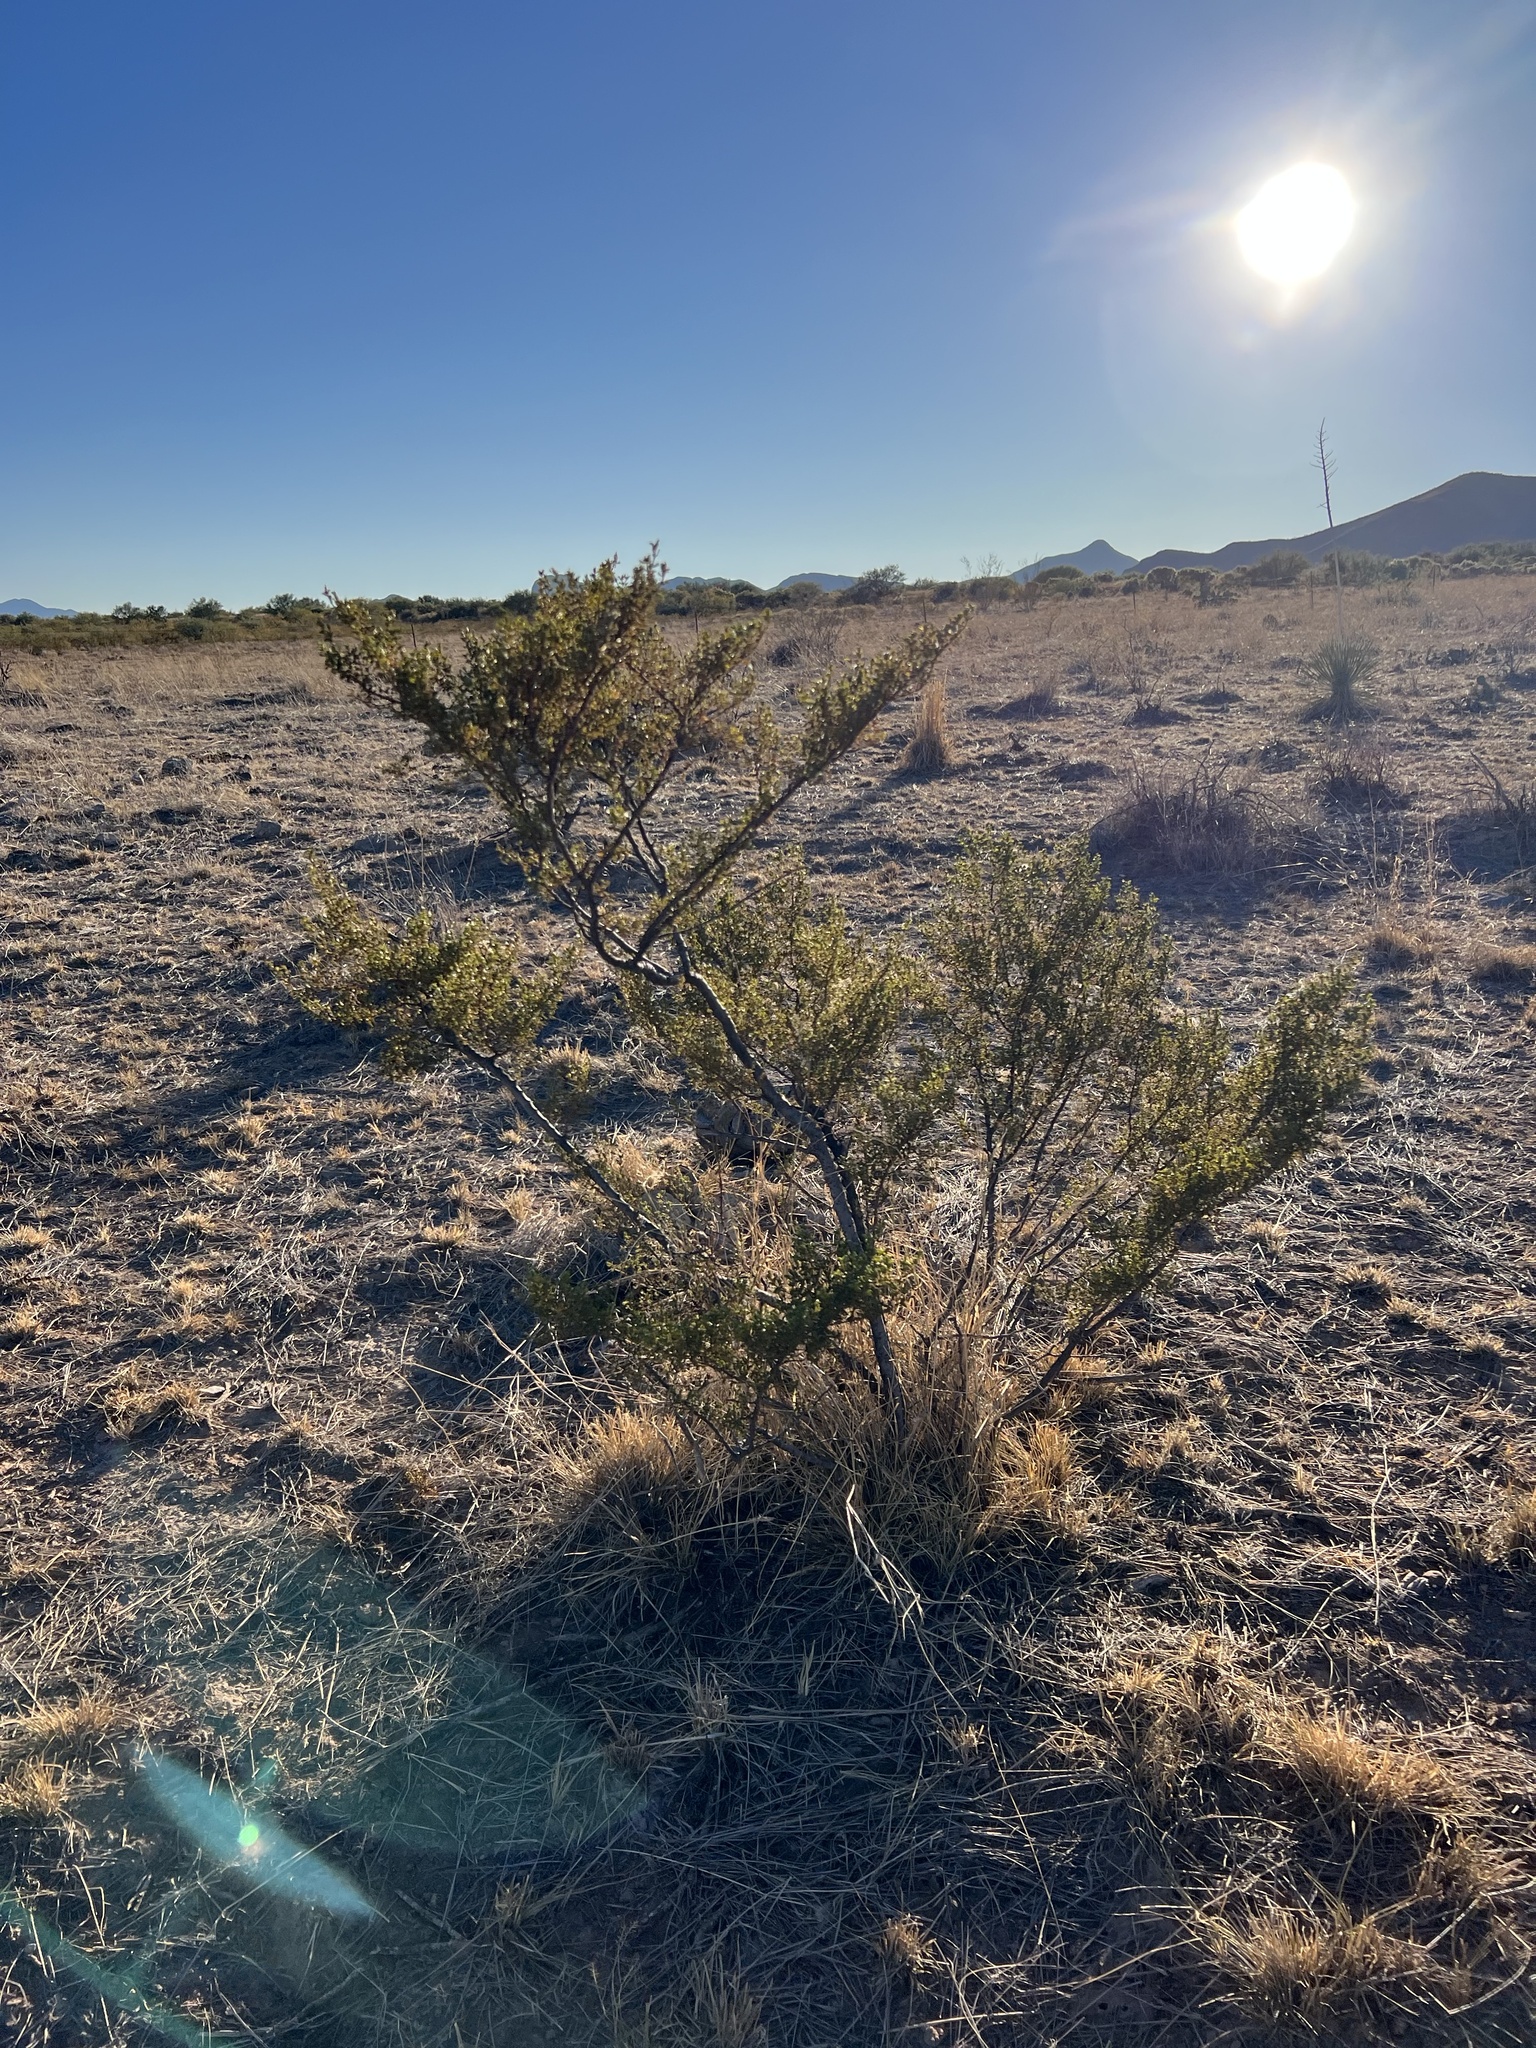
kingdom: Plantae
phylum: Tracheophyta
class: Magnoliopsida
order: Zygophyllales
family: Zygophyllaceae
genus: Larrea
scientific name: Larrea tridentata
